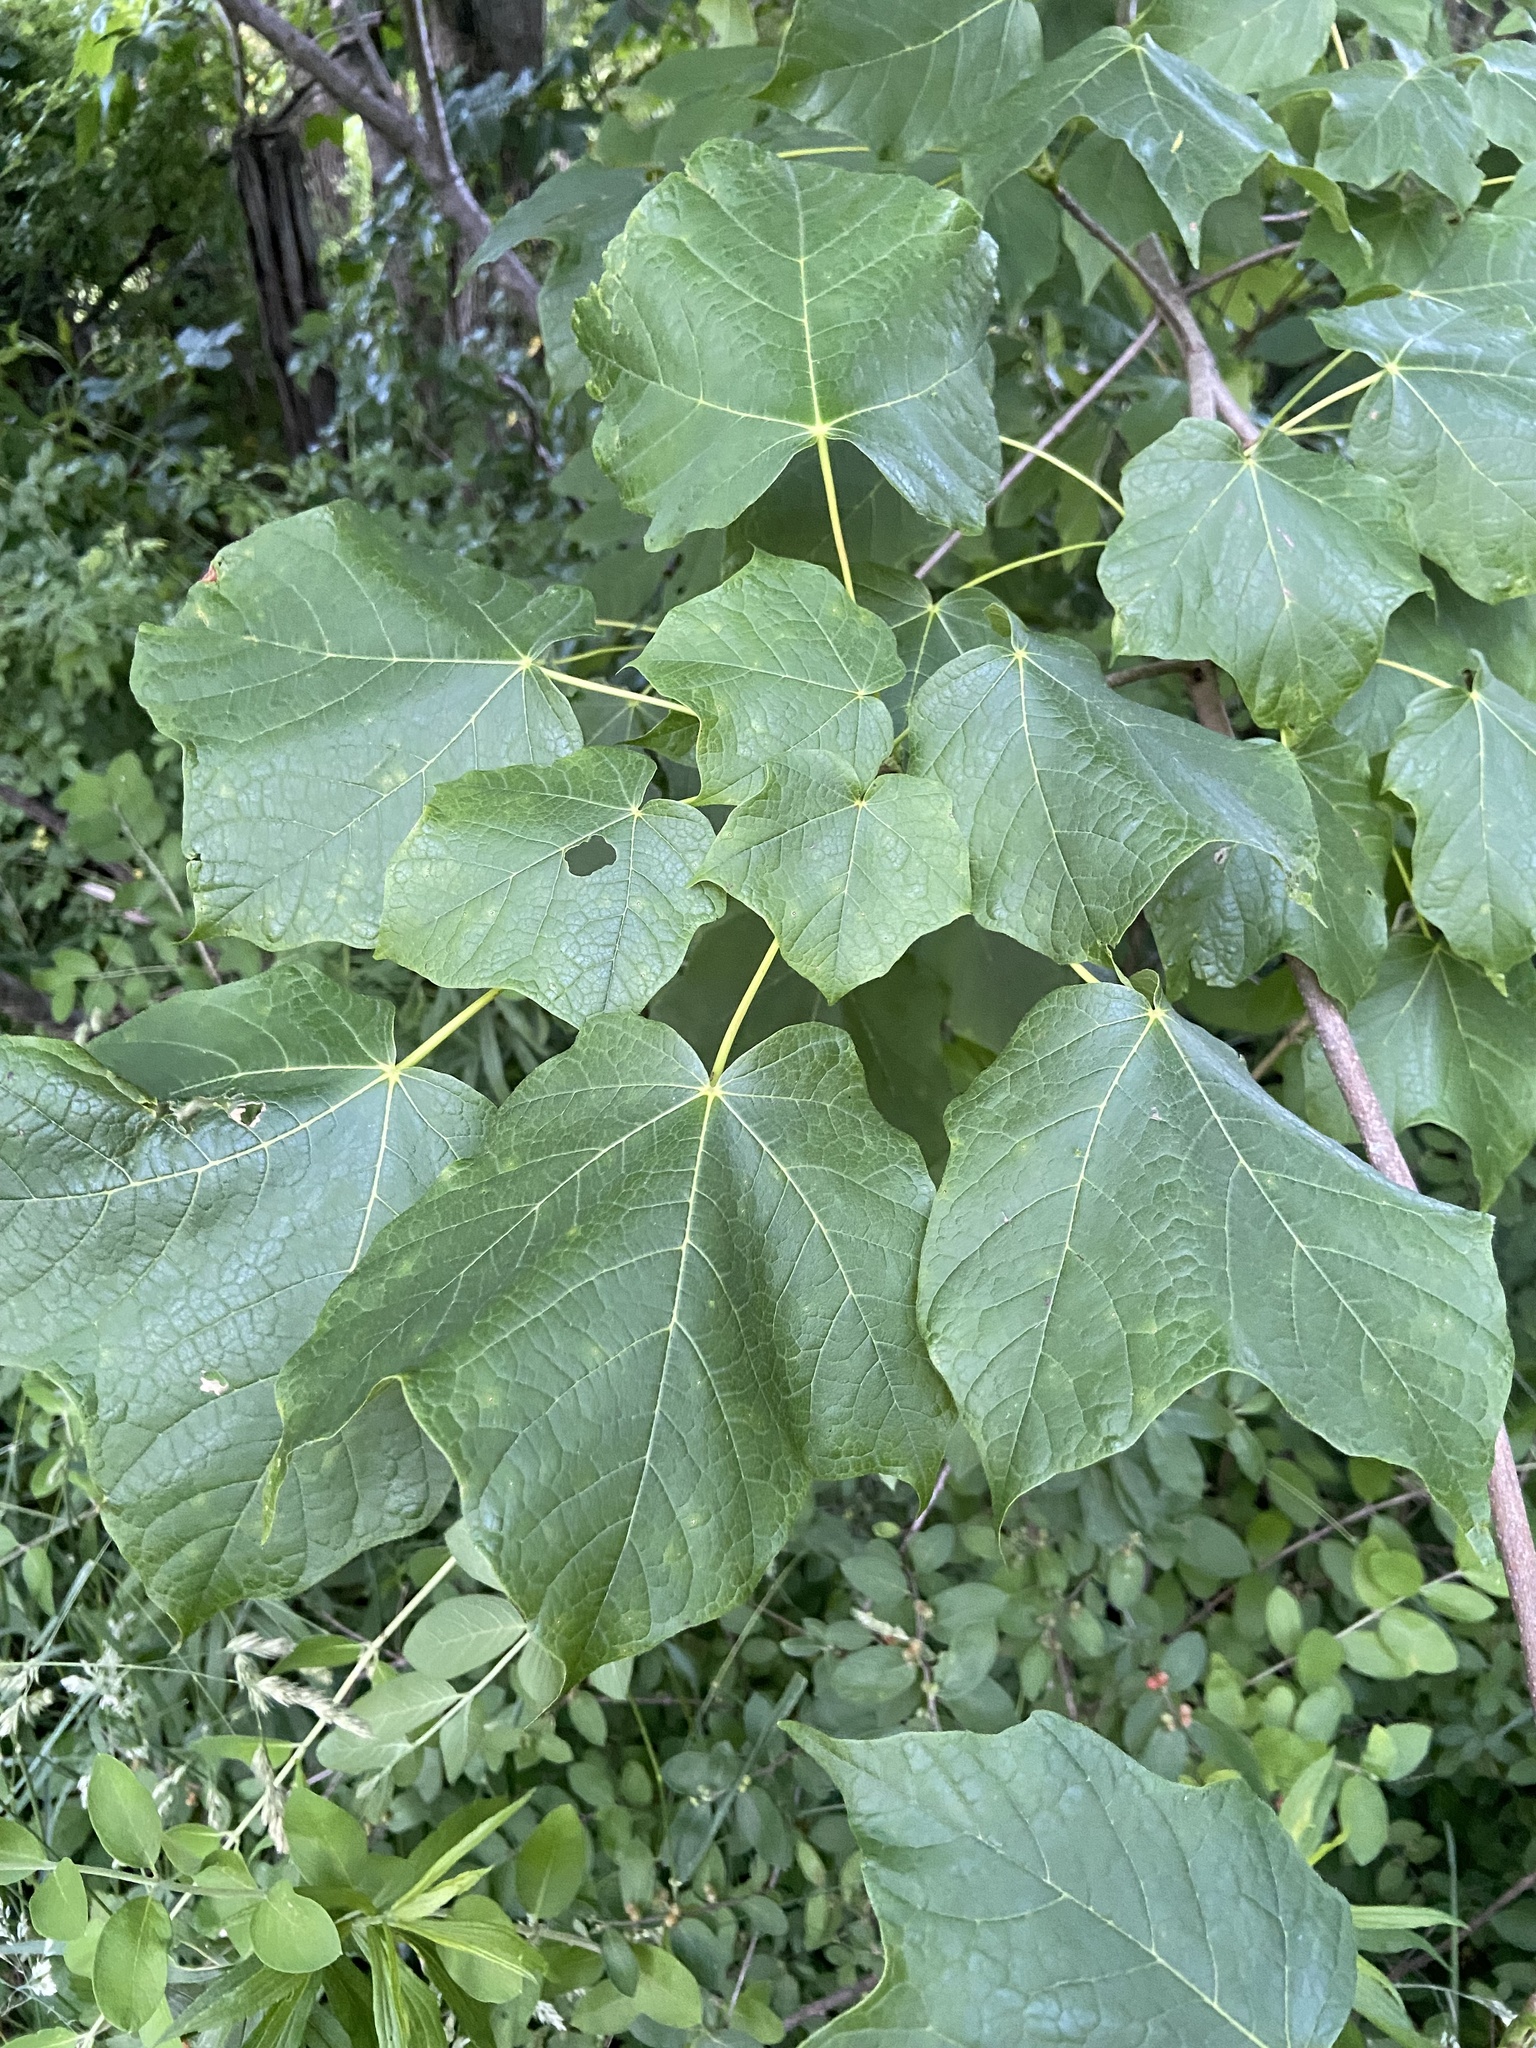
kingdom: Plantae
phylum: Tracheophyta
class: Magnoliopsida
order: Sapindales
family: Sapindaceae
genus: Acer
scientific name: Acer nigrum
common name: Black maple
